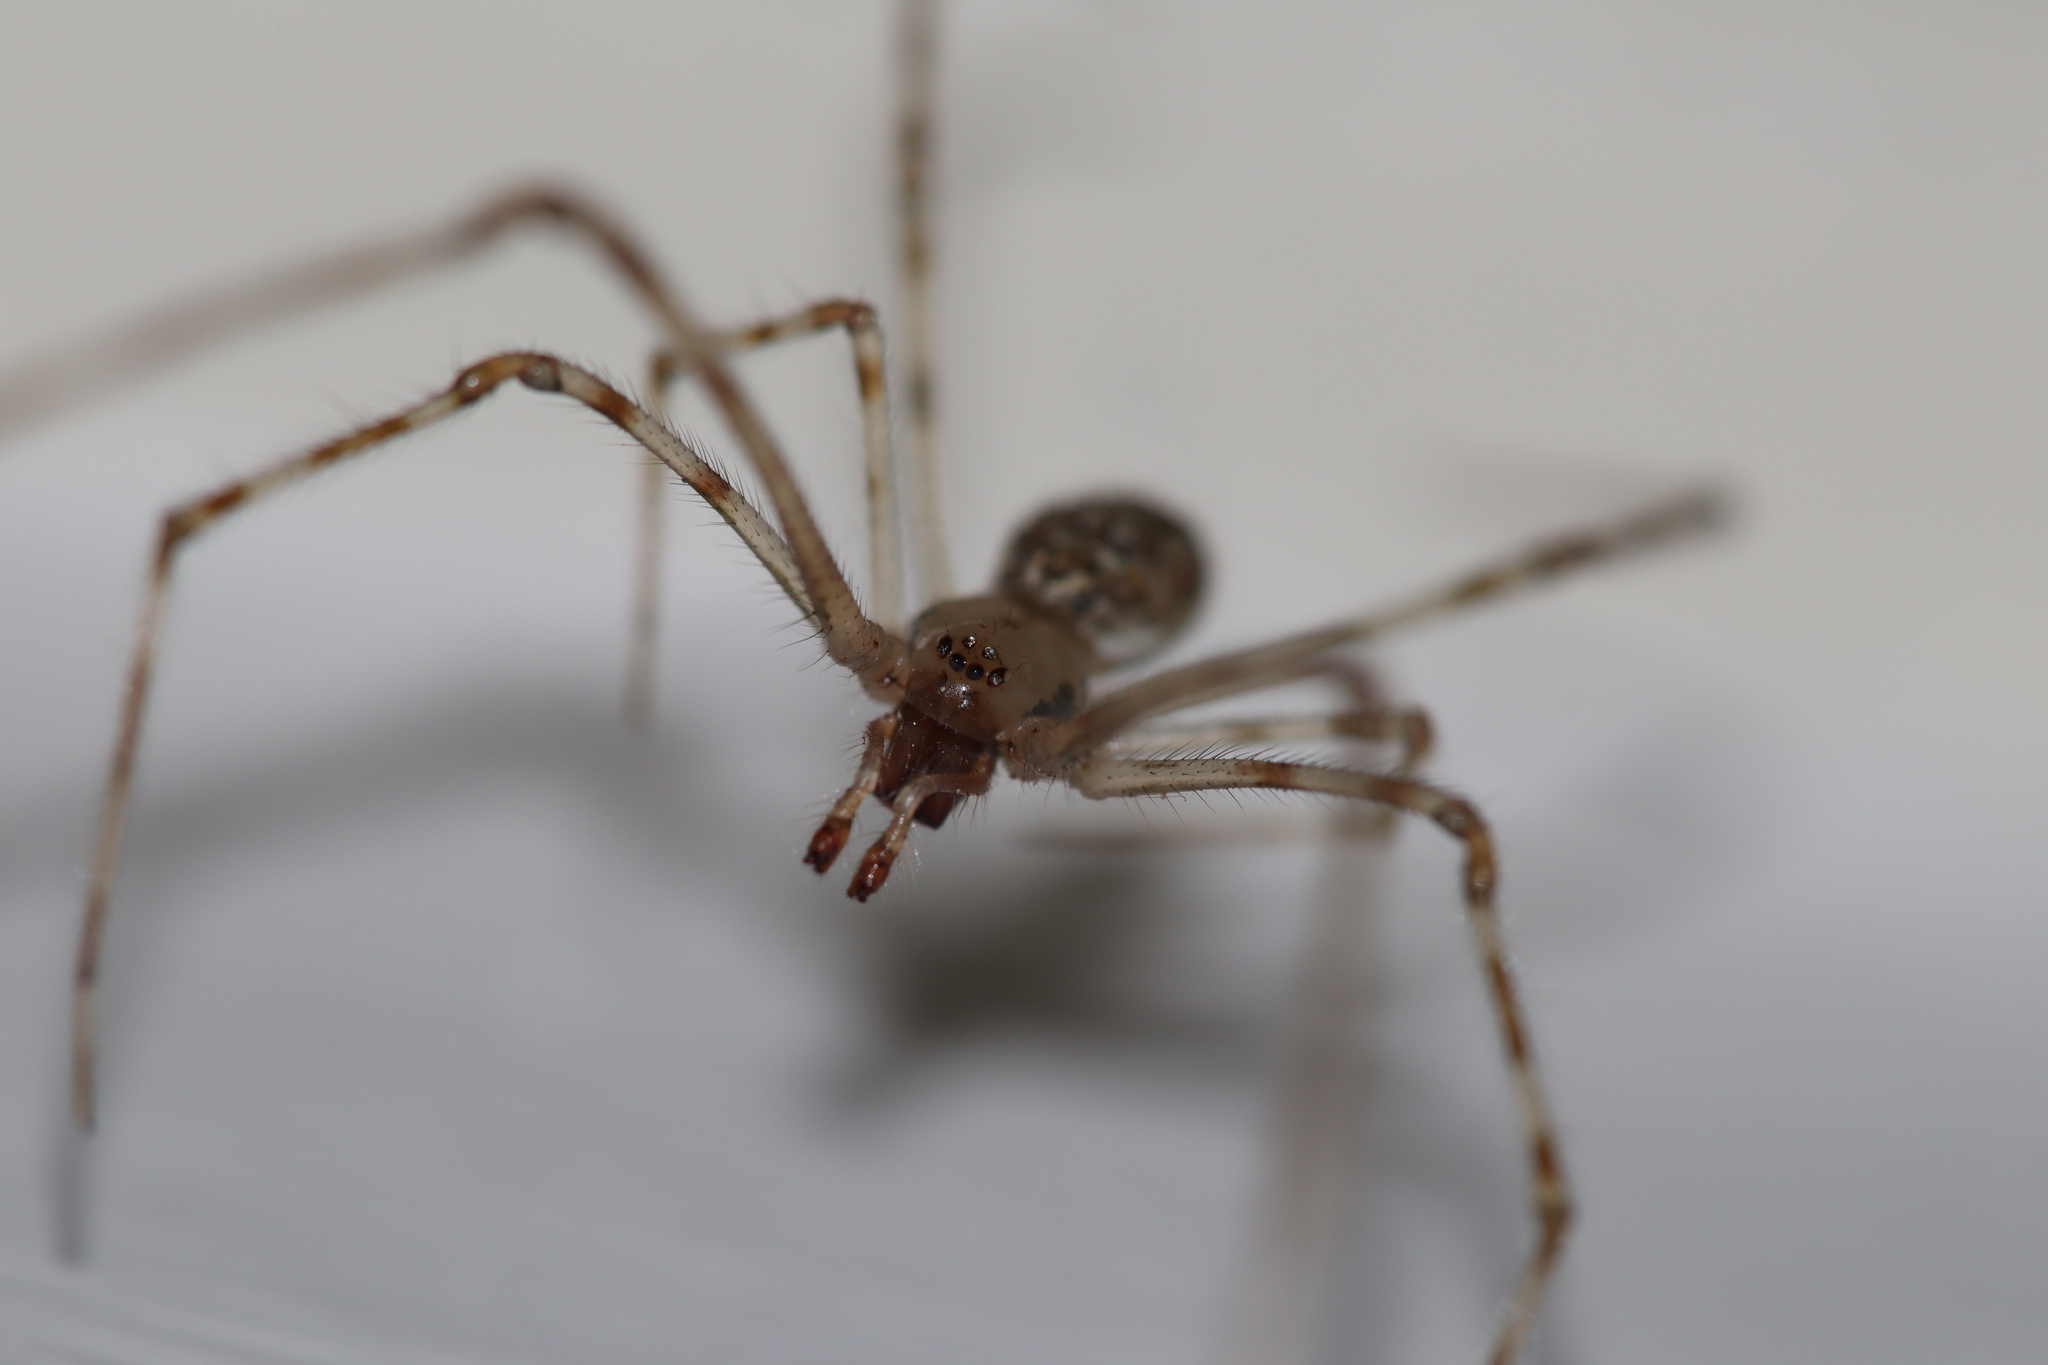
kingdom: Animalia
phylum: Arthropoda
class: Arachnida
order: Araneae
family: Theridiidae
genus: Cryptachaea
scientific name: Cryptachaea gigantipes
